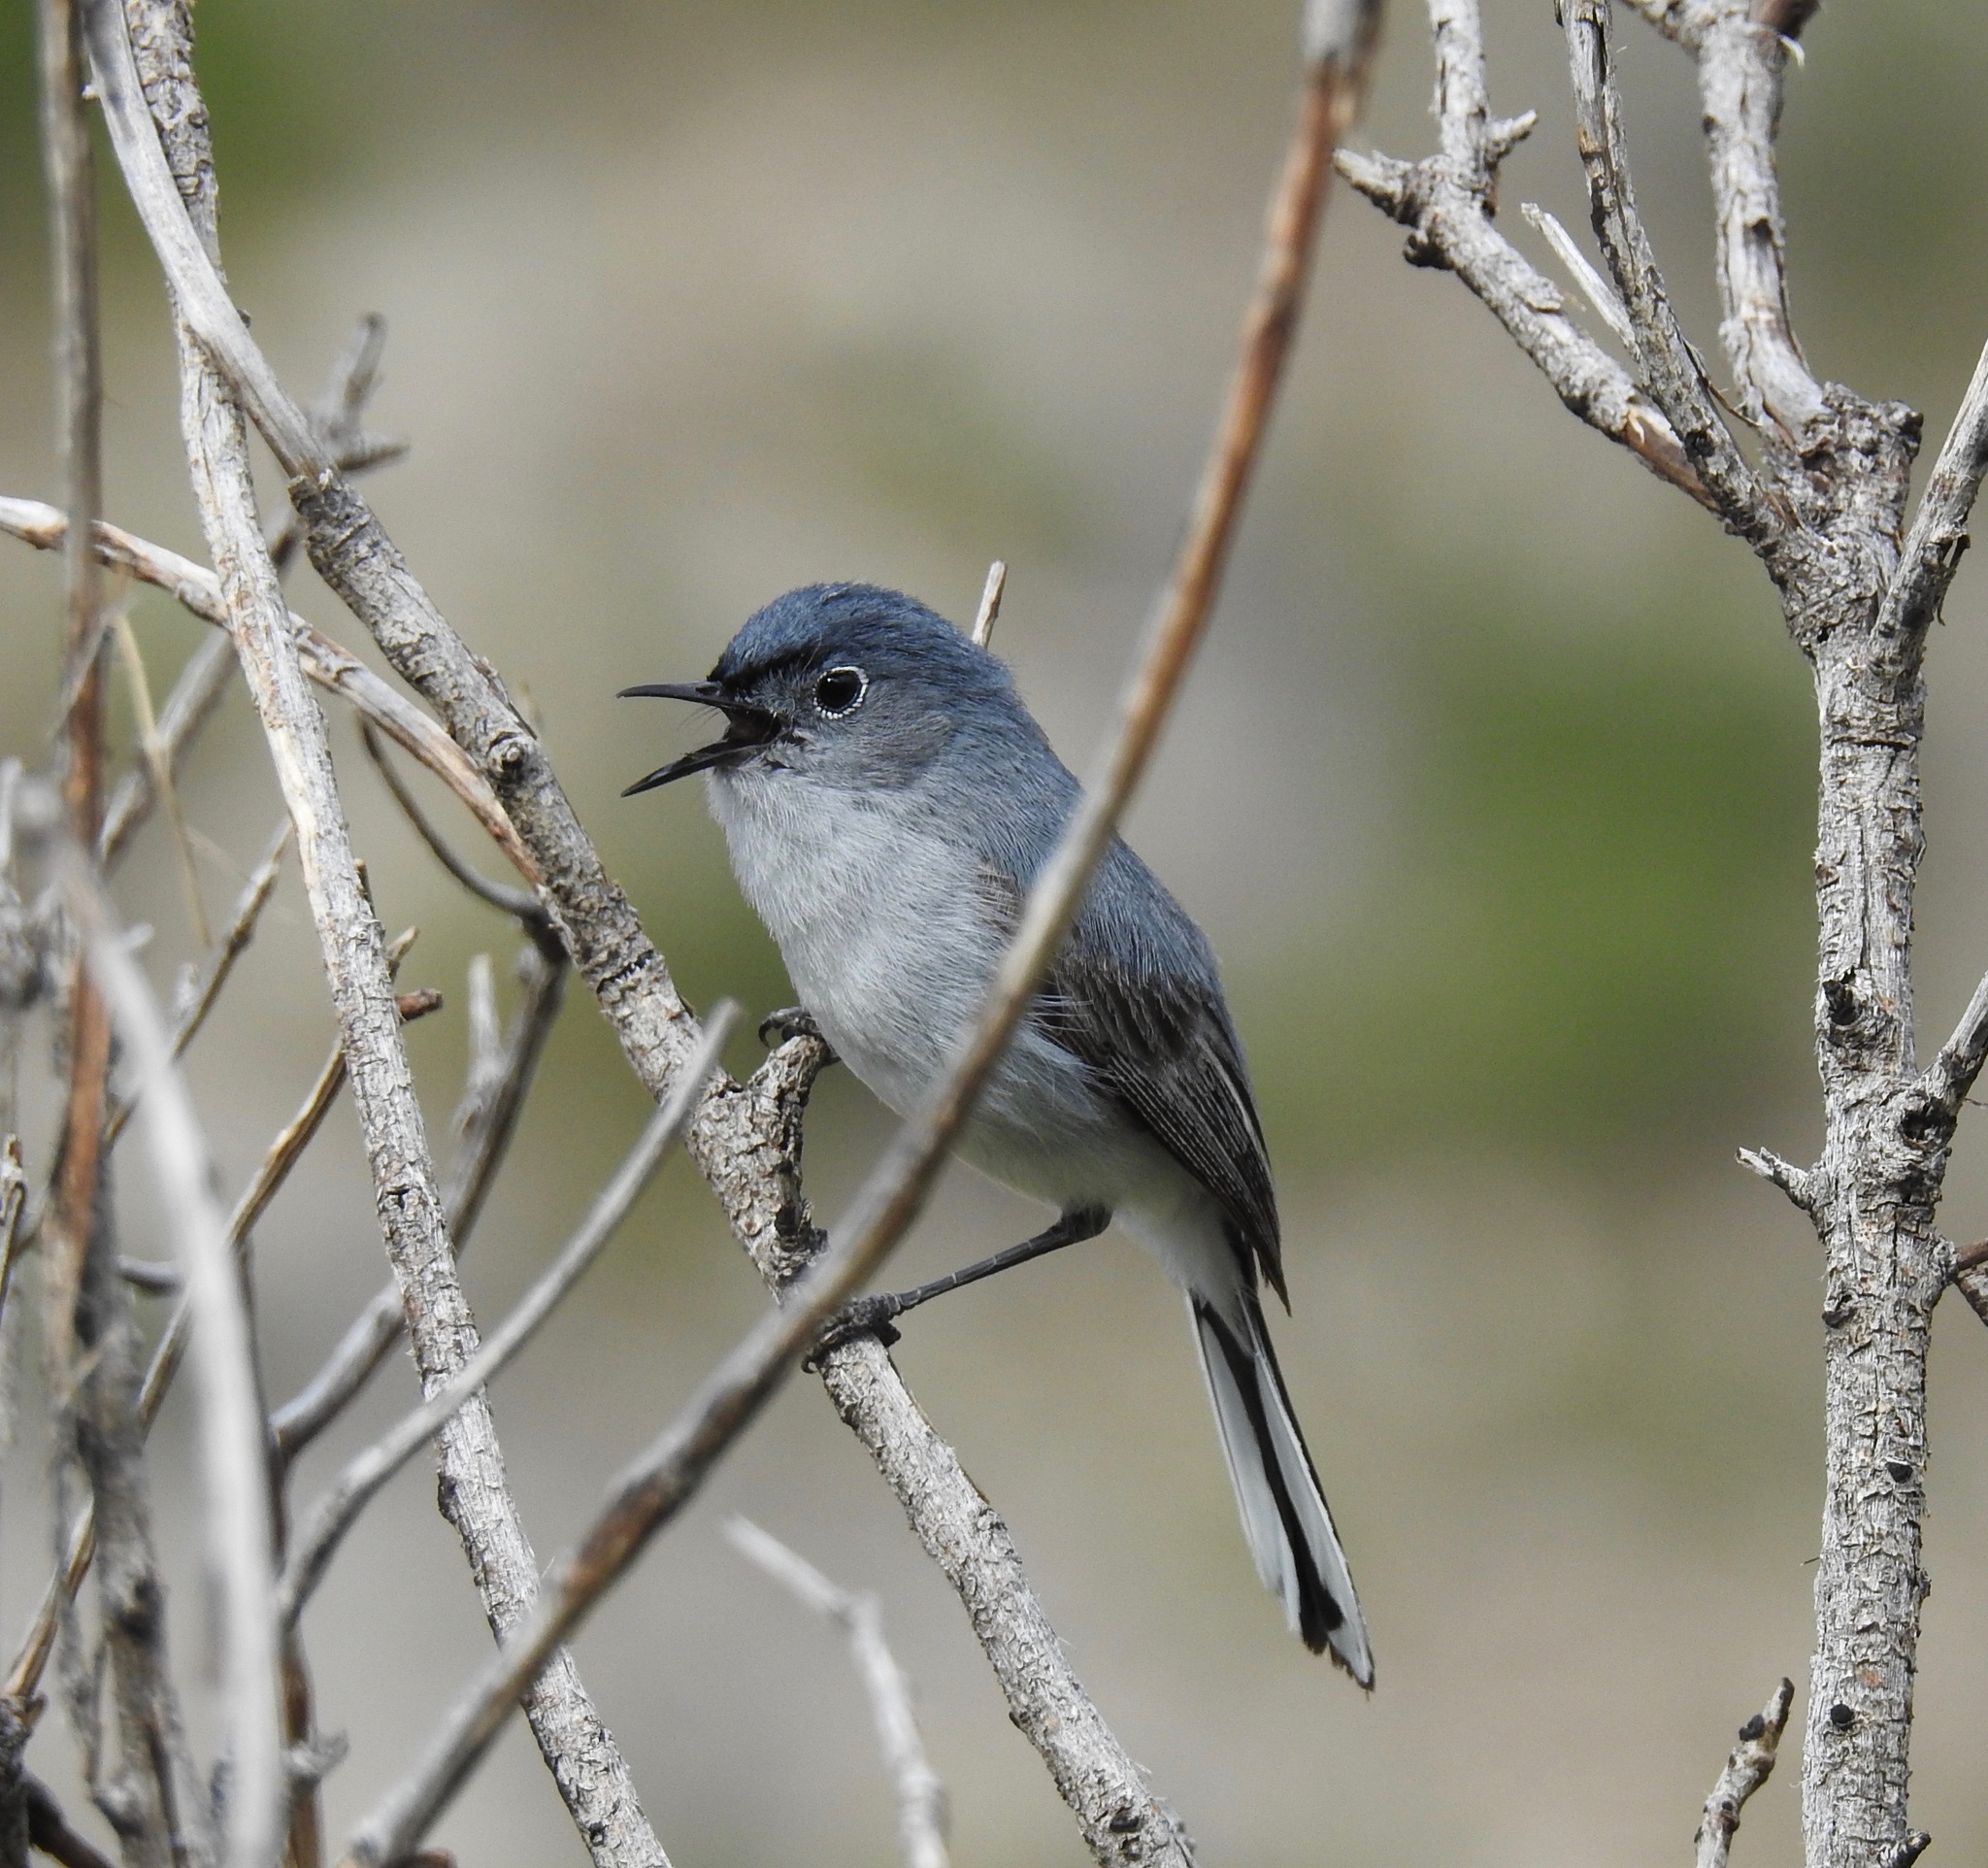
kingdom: Animalia
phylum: Chordata
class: Aves
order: Passeriformes
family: Polioptilidae
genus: Polioptila
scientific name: Polioptila caerulea
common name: Blue-gray gnatcatcher
